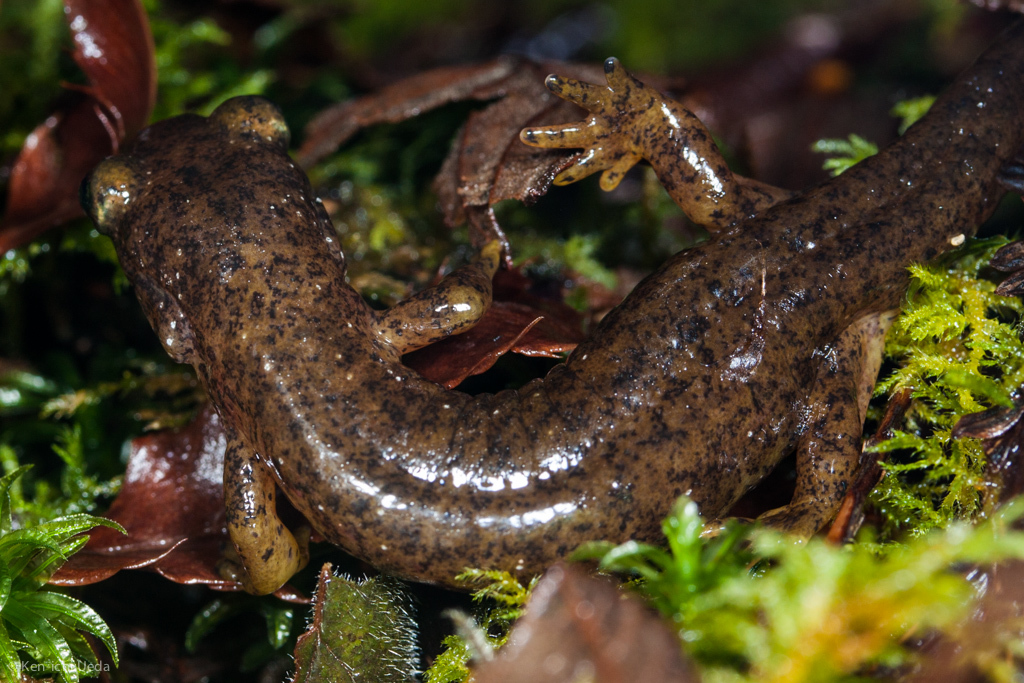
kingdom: Animalia
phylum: Chordata
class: Amphibia
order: Caudata
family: Rhyacotritonidae
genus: Rhyacotriton
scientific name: Rhyacotriton variegatus
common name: Southern torrent salamander
